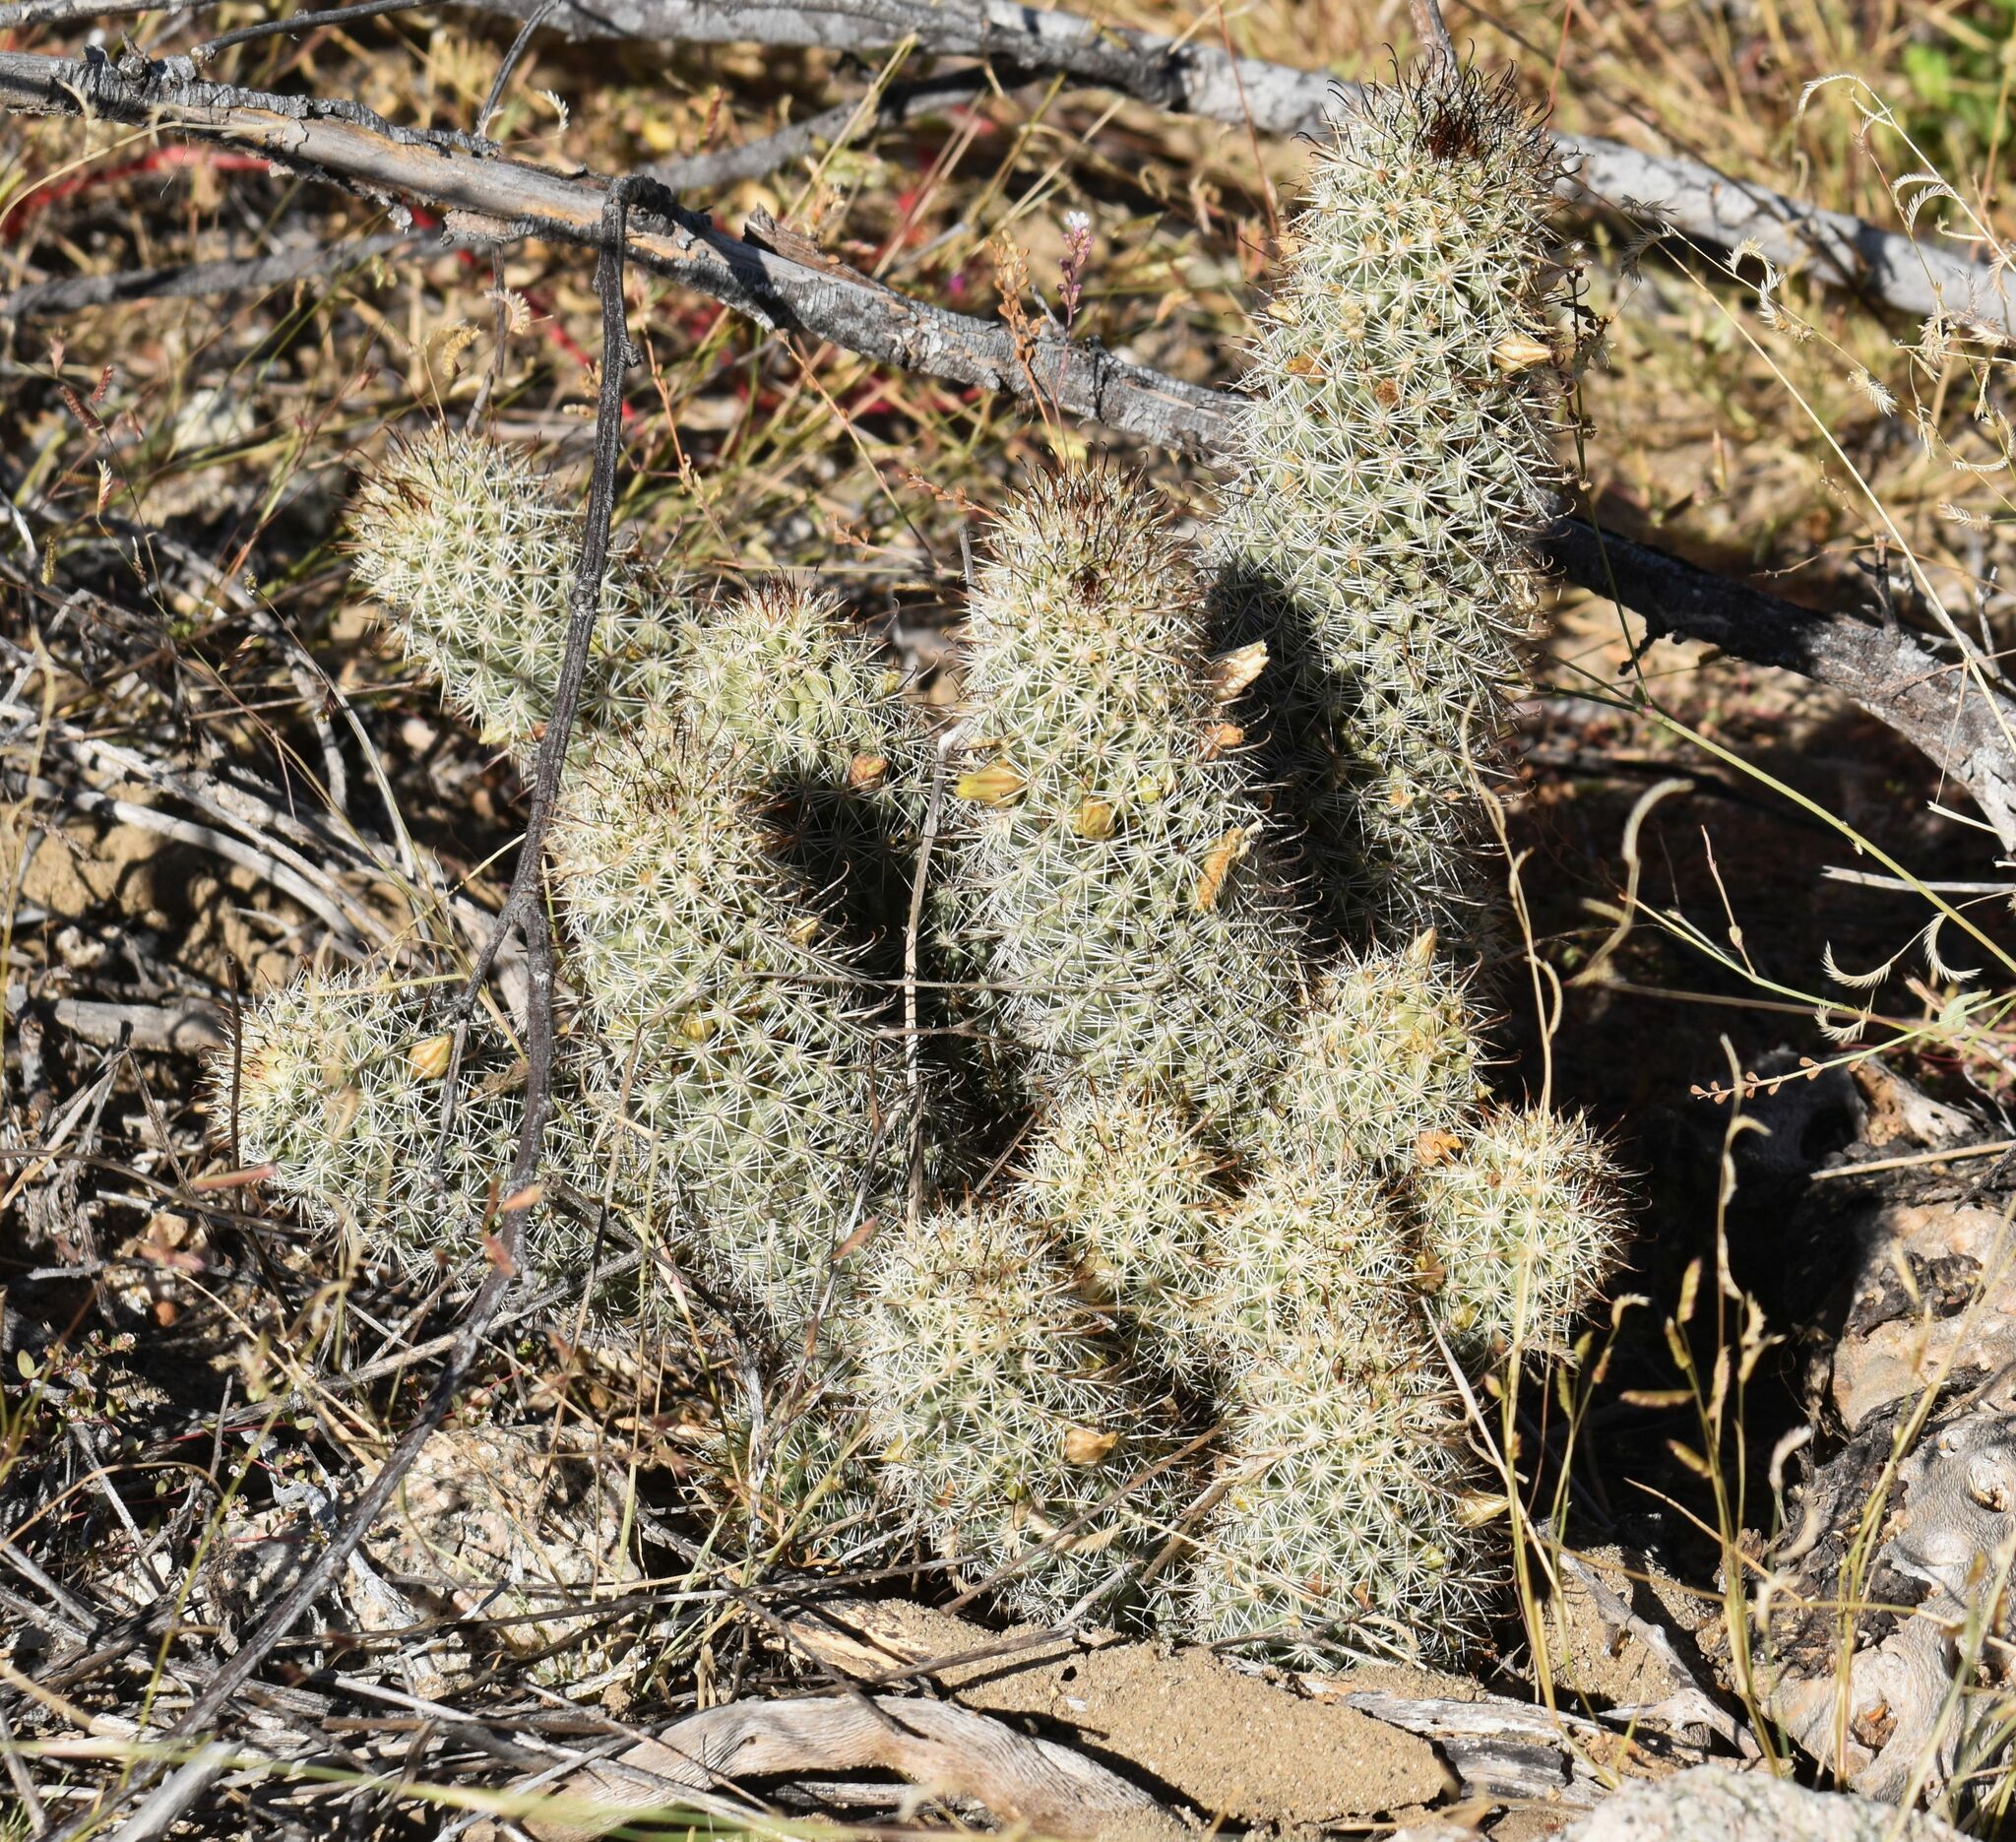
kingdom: Plantae
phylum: Tracheophyta
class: Magnoliopsida
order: Caryophyllales
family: Cactaceae
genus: Cochemiea
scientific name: Cochemiea armillata
